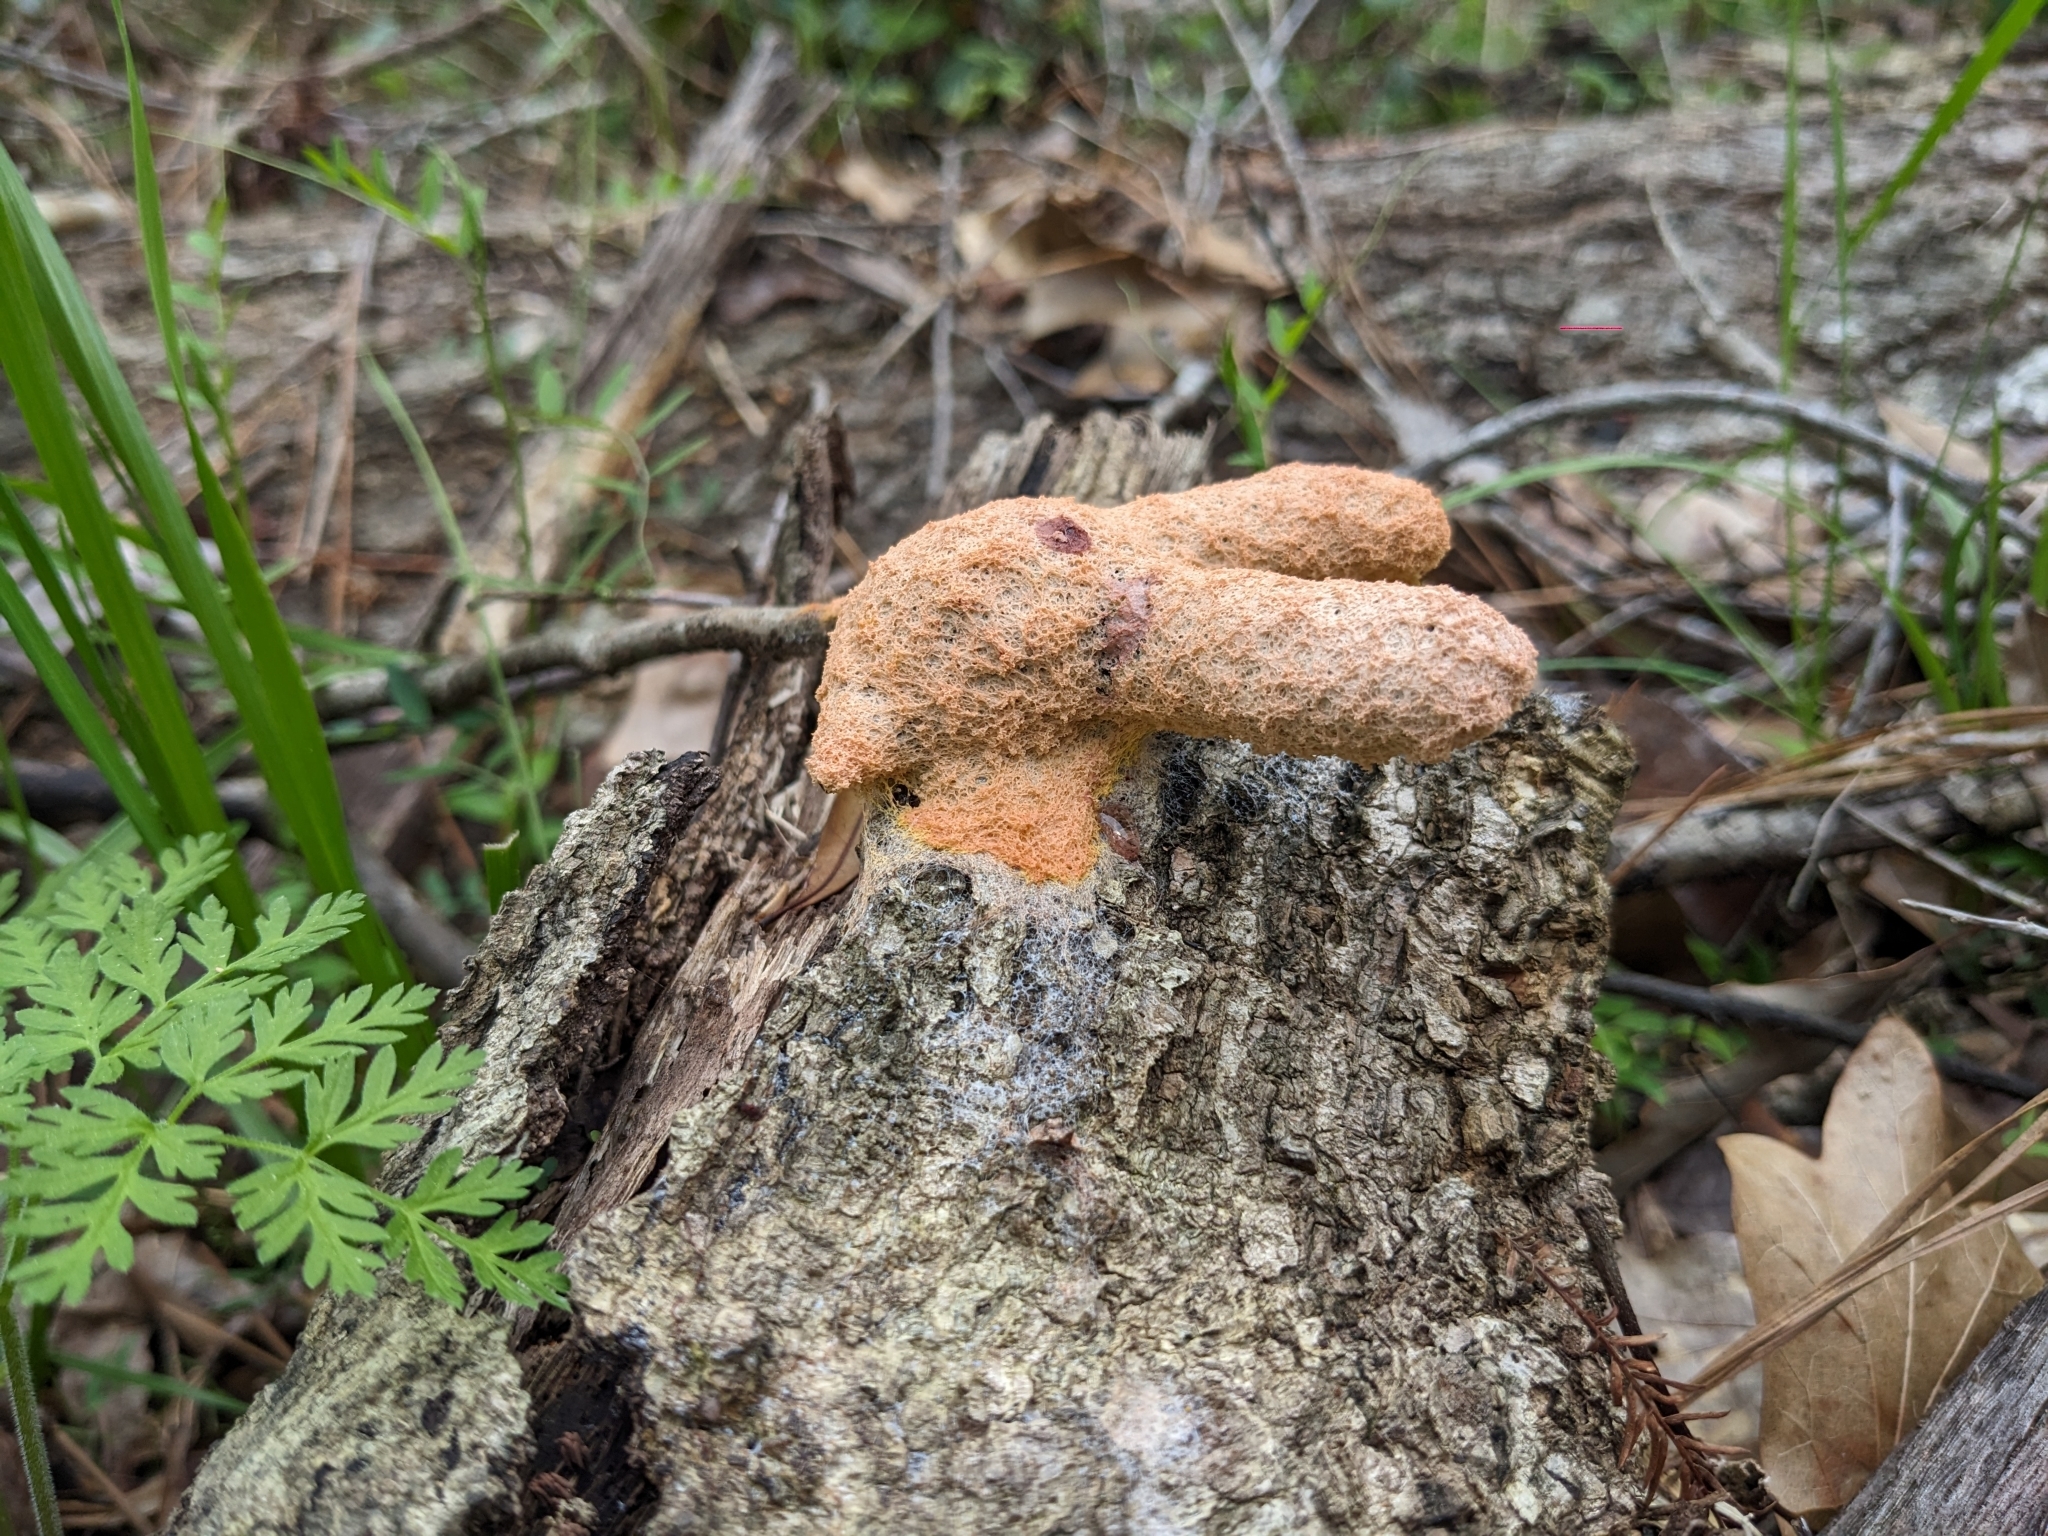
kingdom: Protozoa
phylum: Mycetozoa
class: Myxomycetes
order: Physarales
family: Physaraceae
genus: Fuligo
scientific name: Fuligo septica
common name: Dog vomit slime mold
